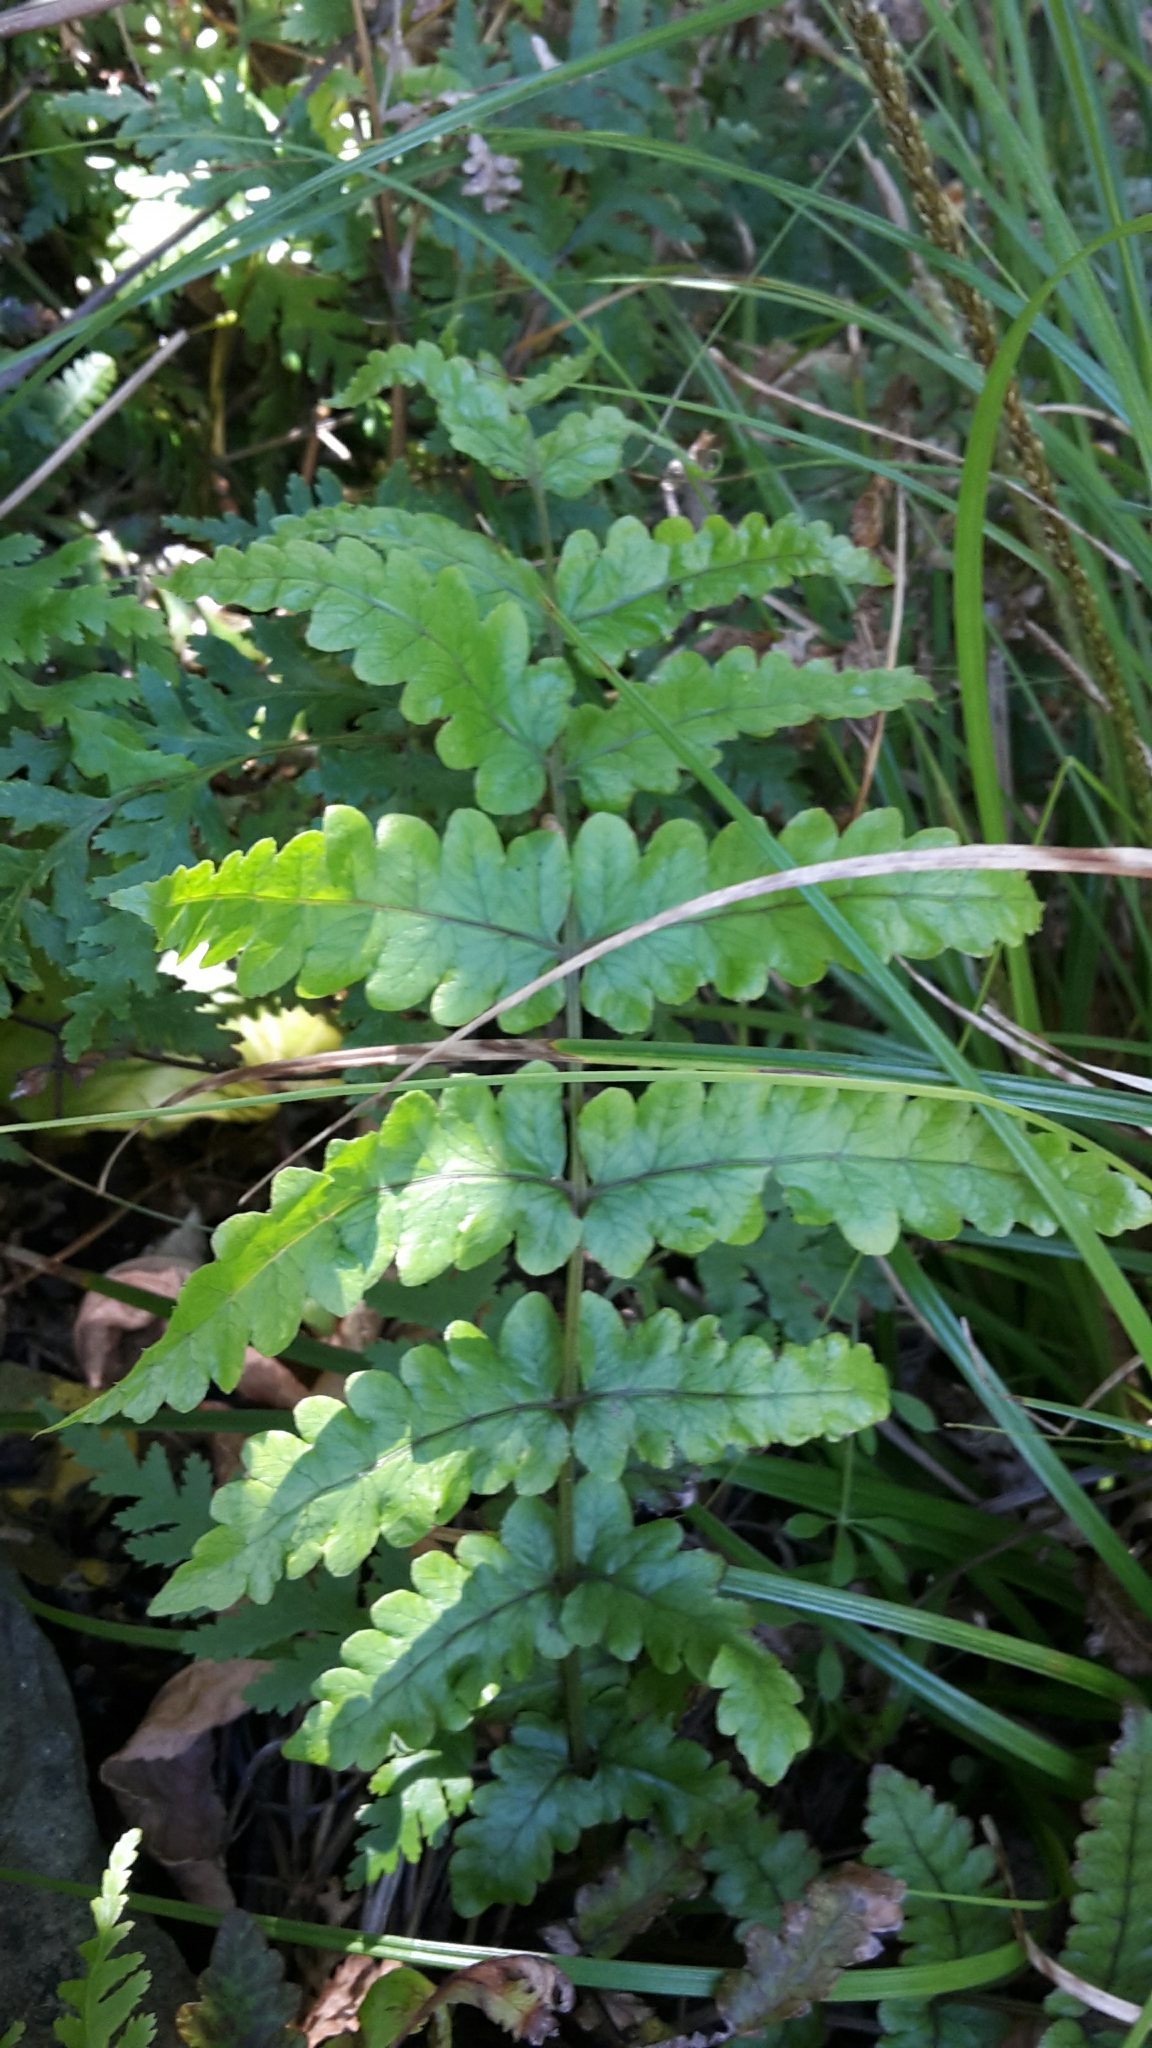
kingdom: Plantae
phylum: Tracheophyta
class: Polypodiopsida
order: Polypodiales
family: Thelypteridaceae
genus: Pakau
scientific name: Pakau pennigera
